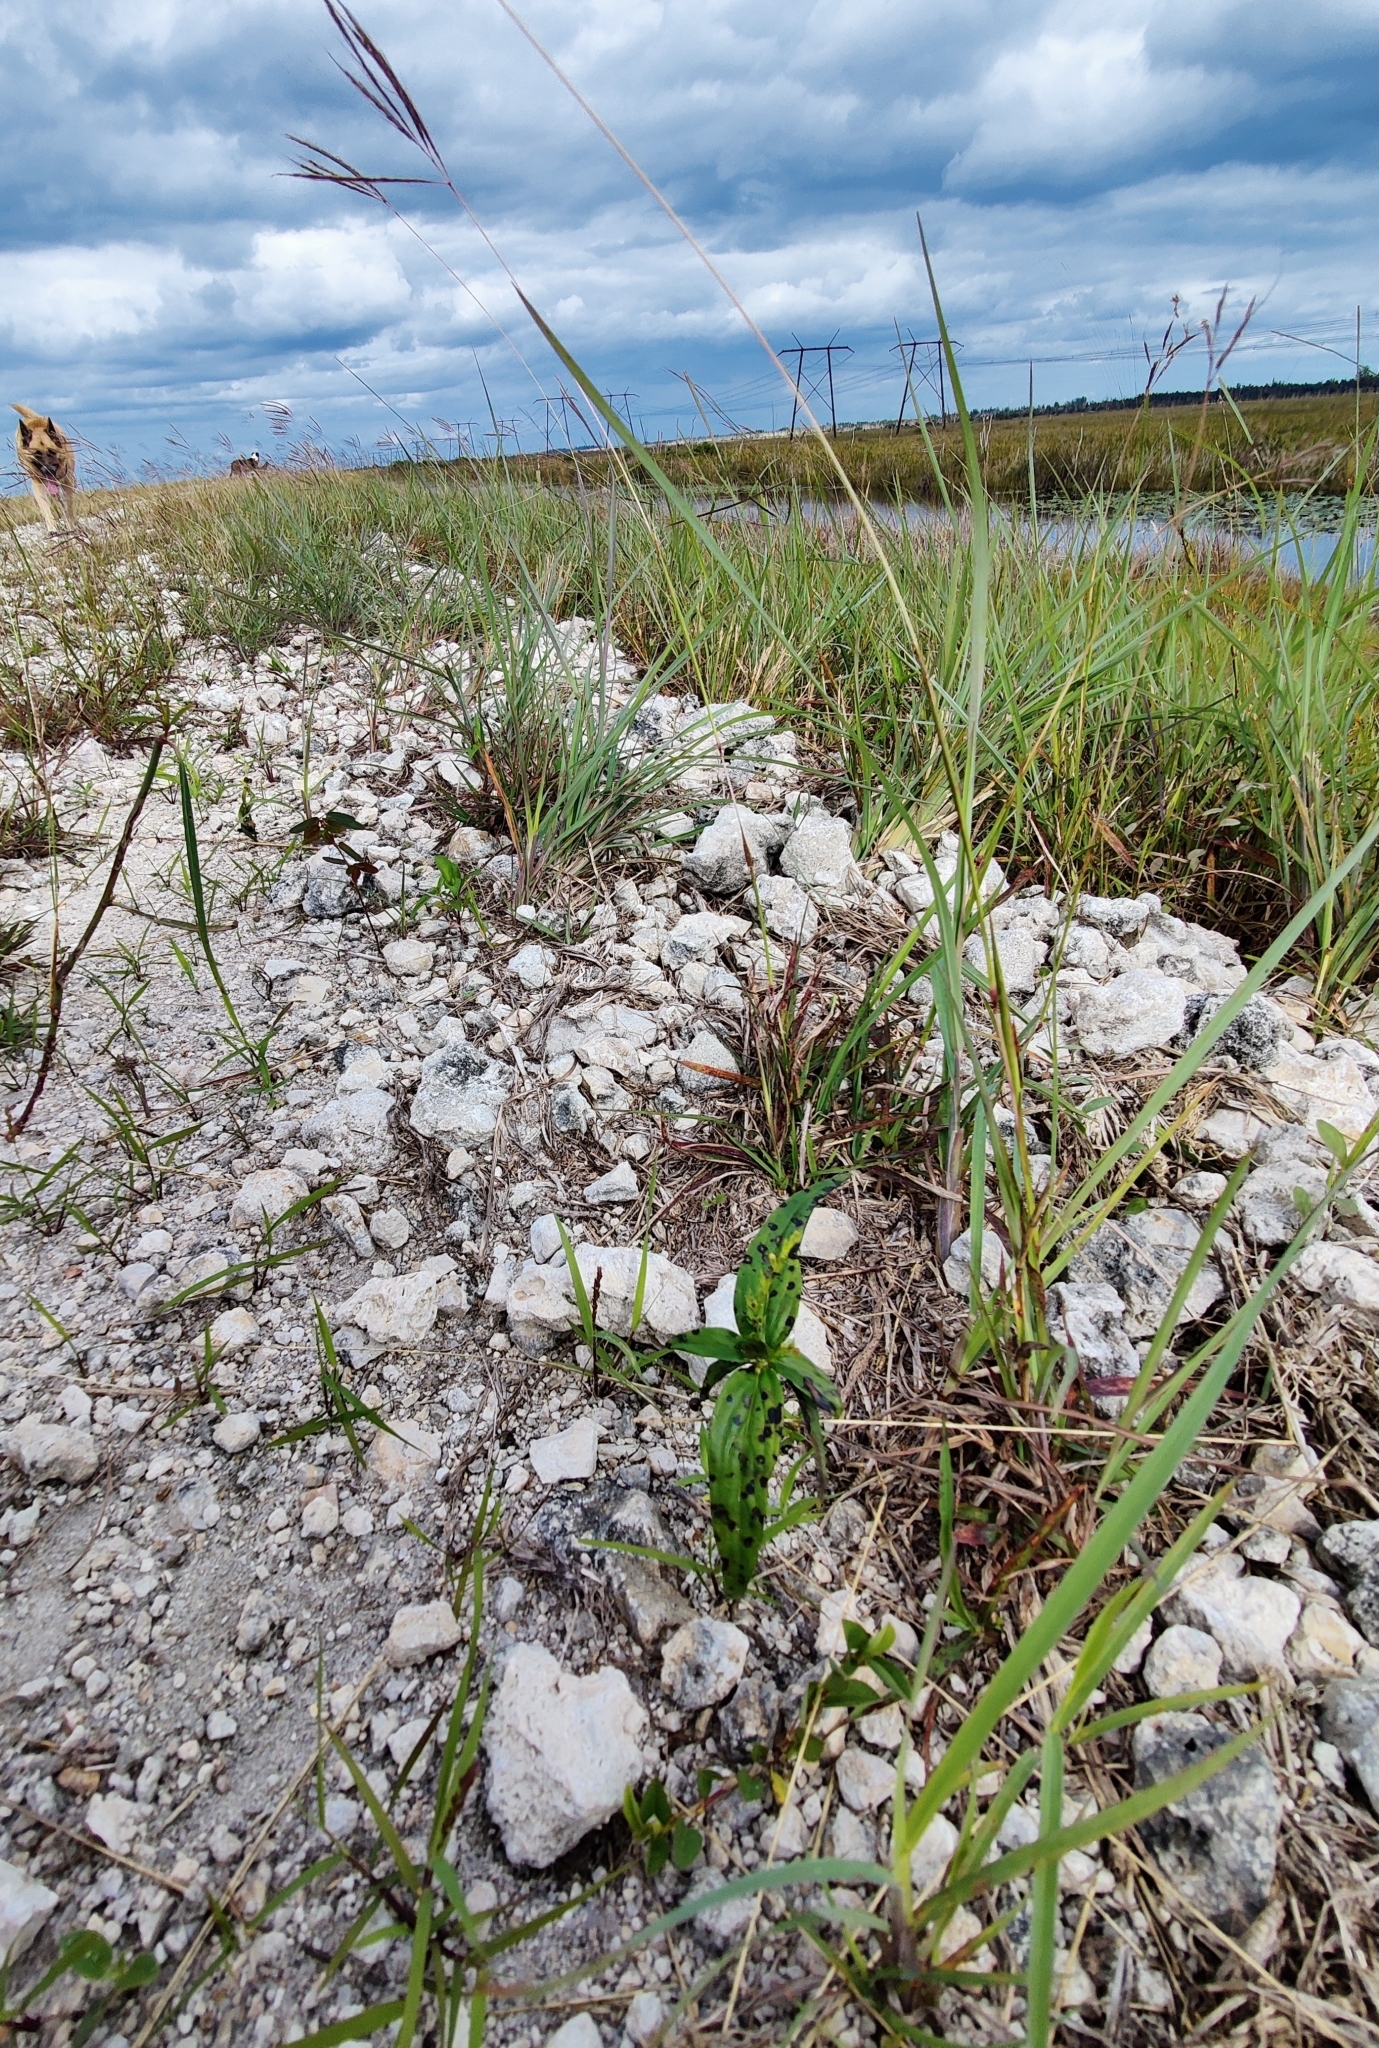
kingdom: Plantae
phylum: Tracheophyta
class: Magnoliopsida
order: Gentianales
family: Loganiaceae
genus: Spigelia
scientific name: Spigelia anthelmia
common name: West indian-pink
